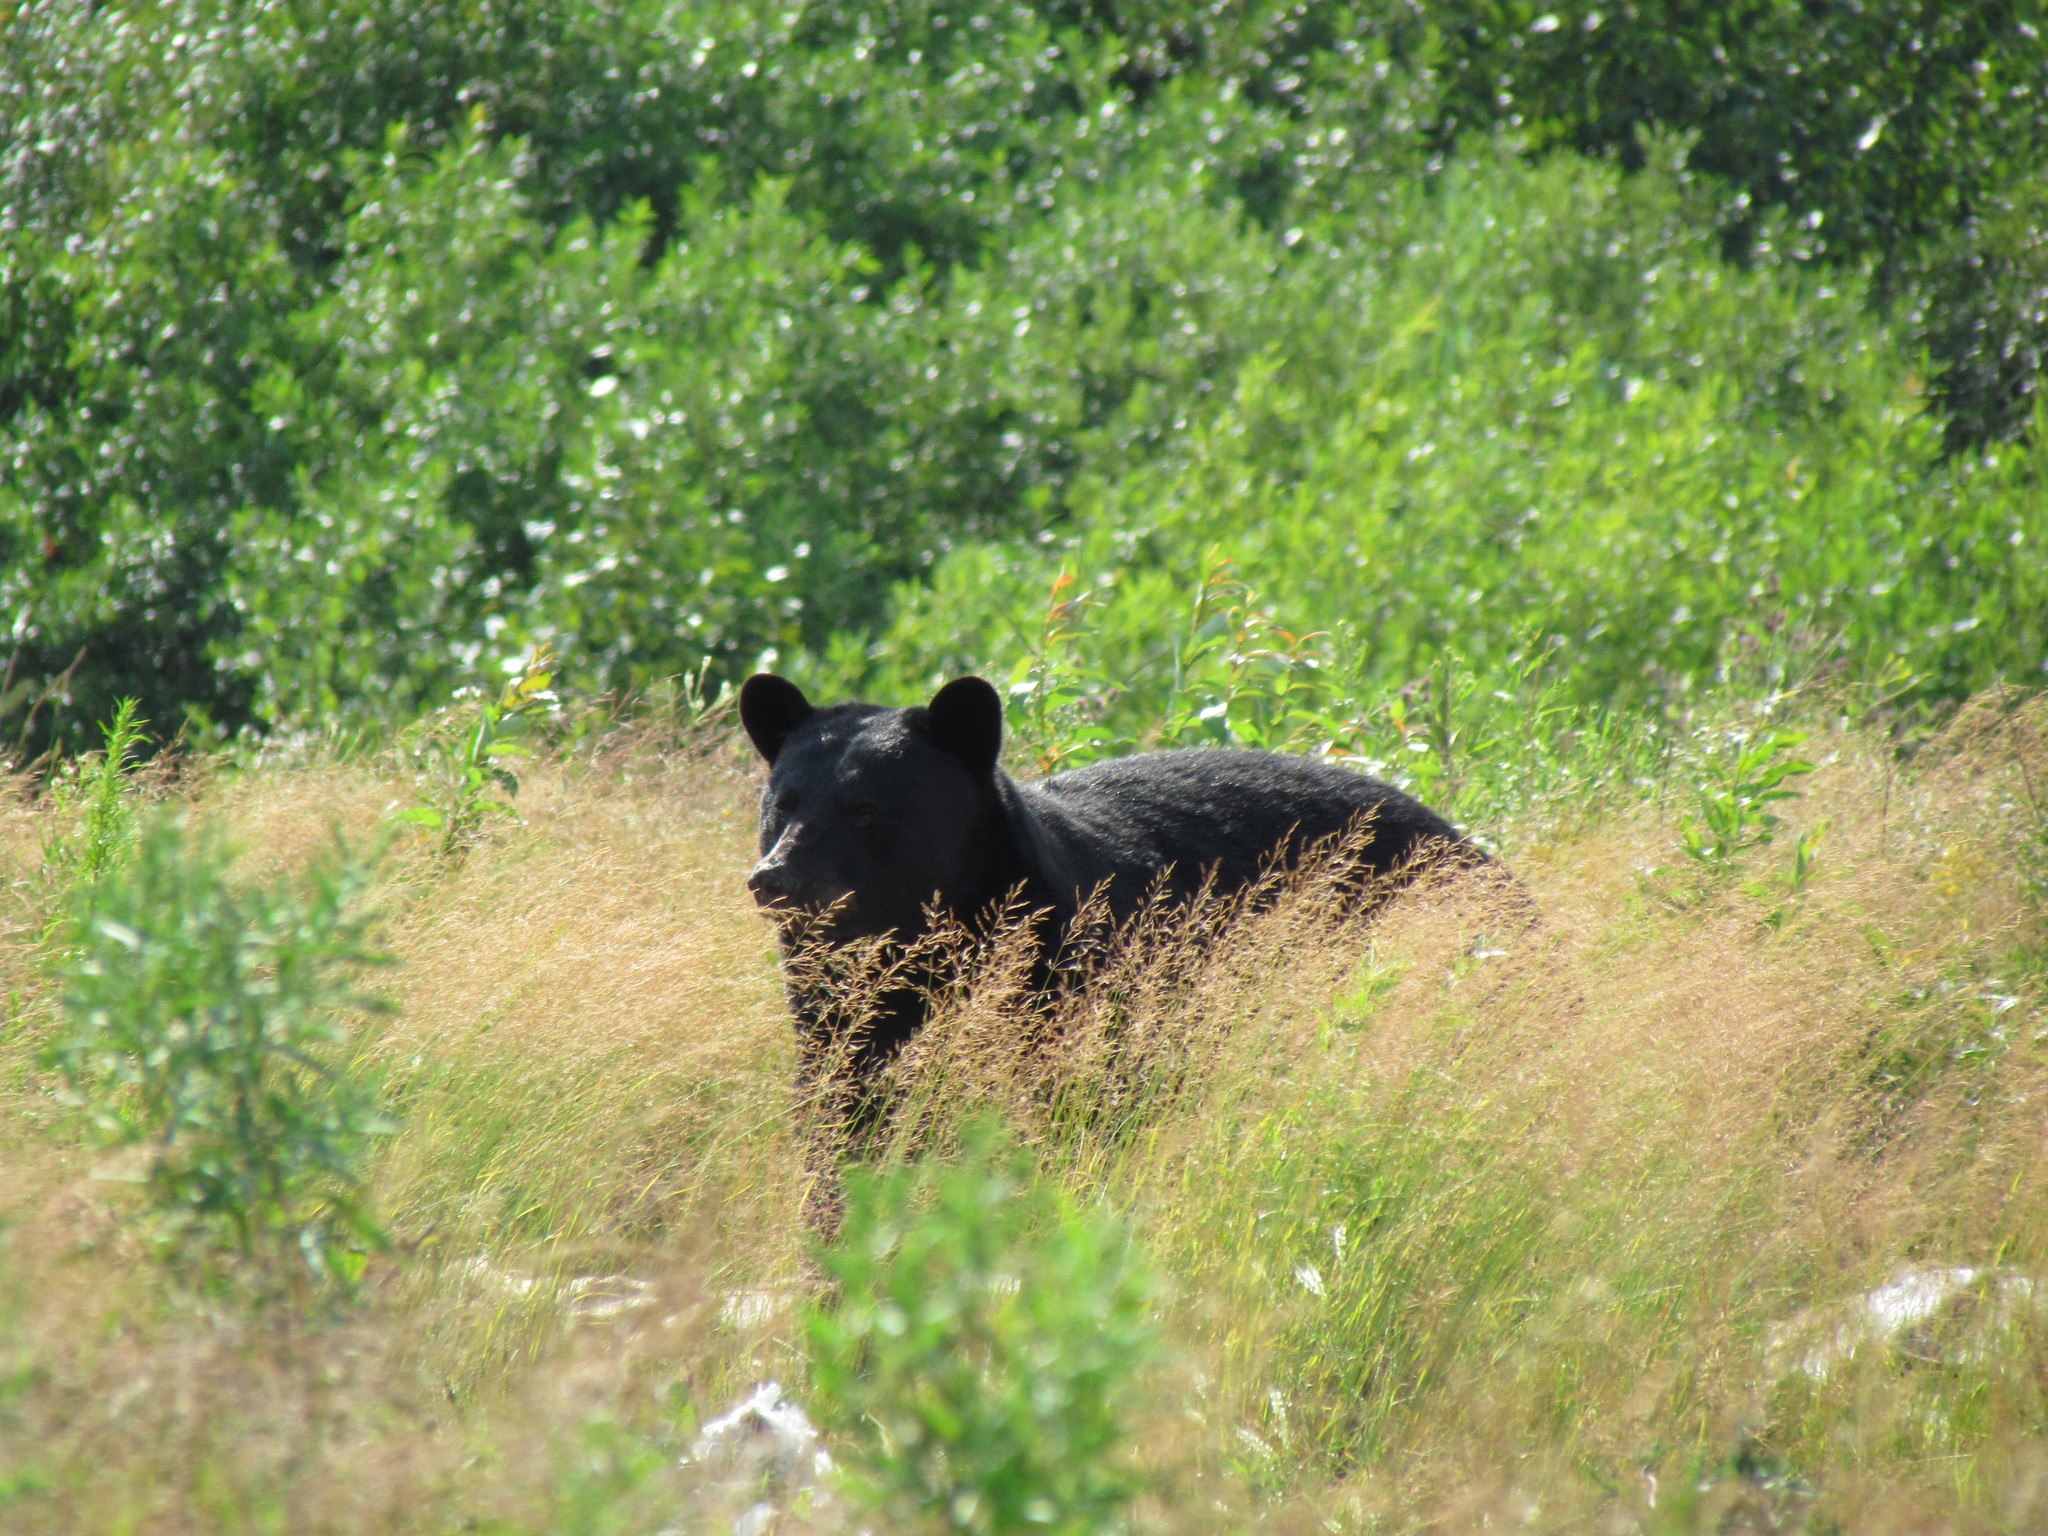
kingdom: Animalia
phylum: Chordata
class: Mammalia
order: Carnivora
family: Ursidae
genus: Ursus
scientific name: Ursus americanus
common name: American black bear
